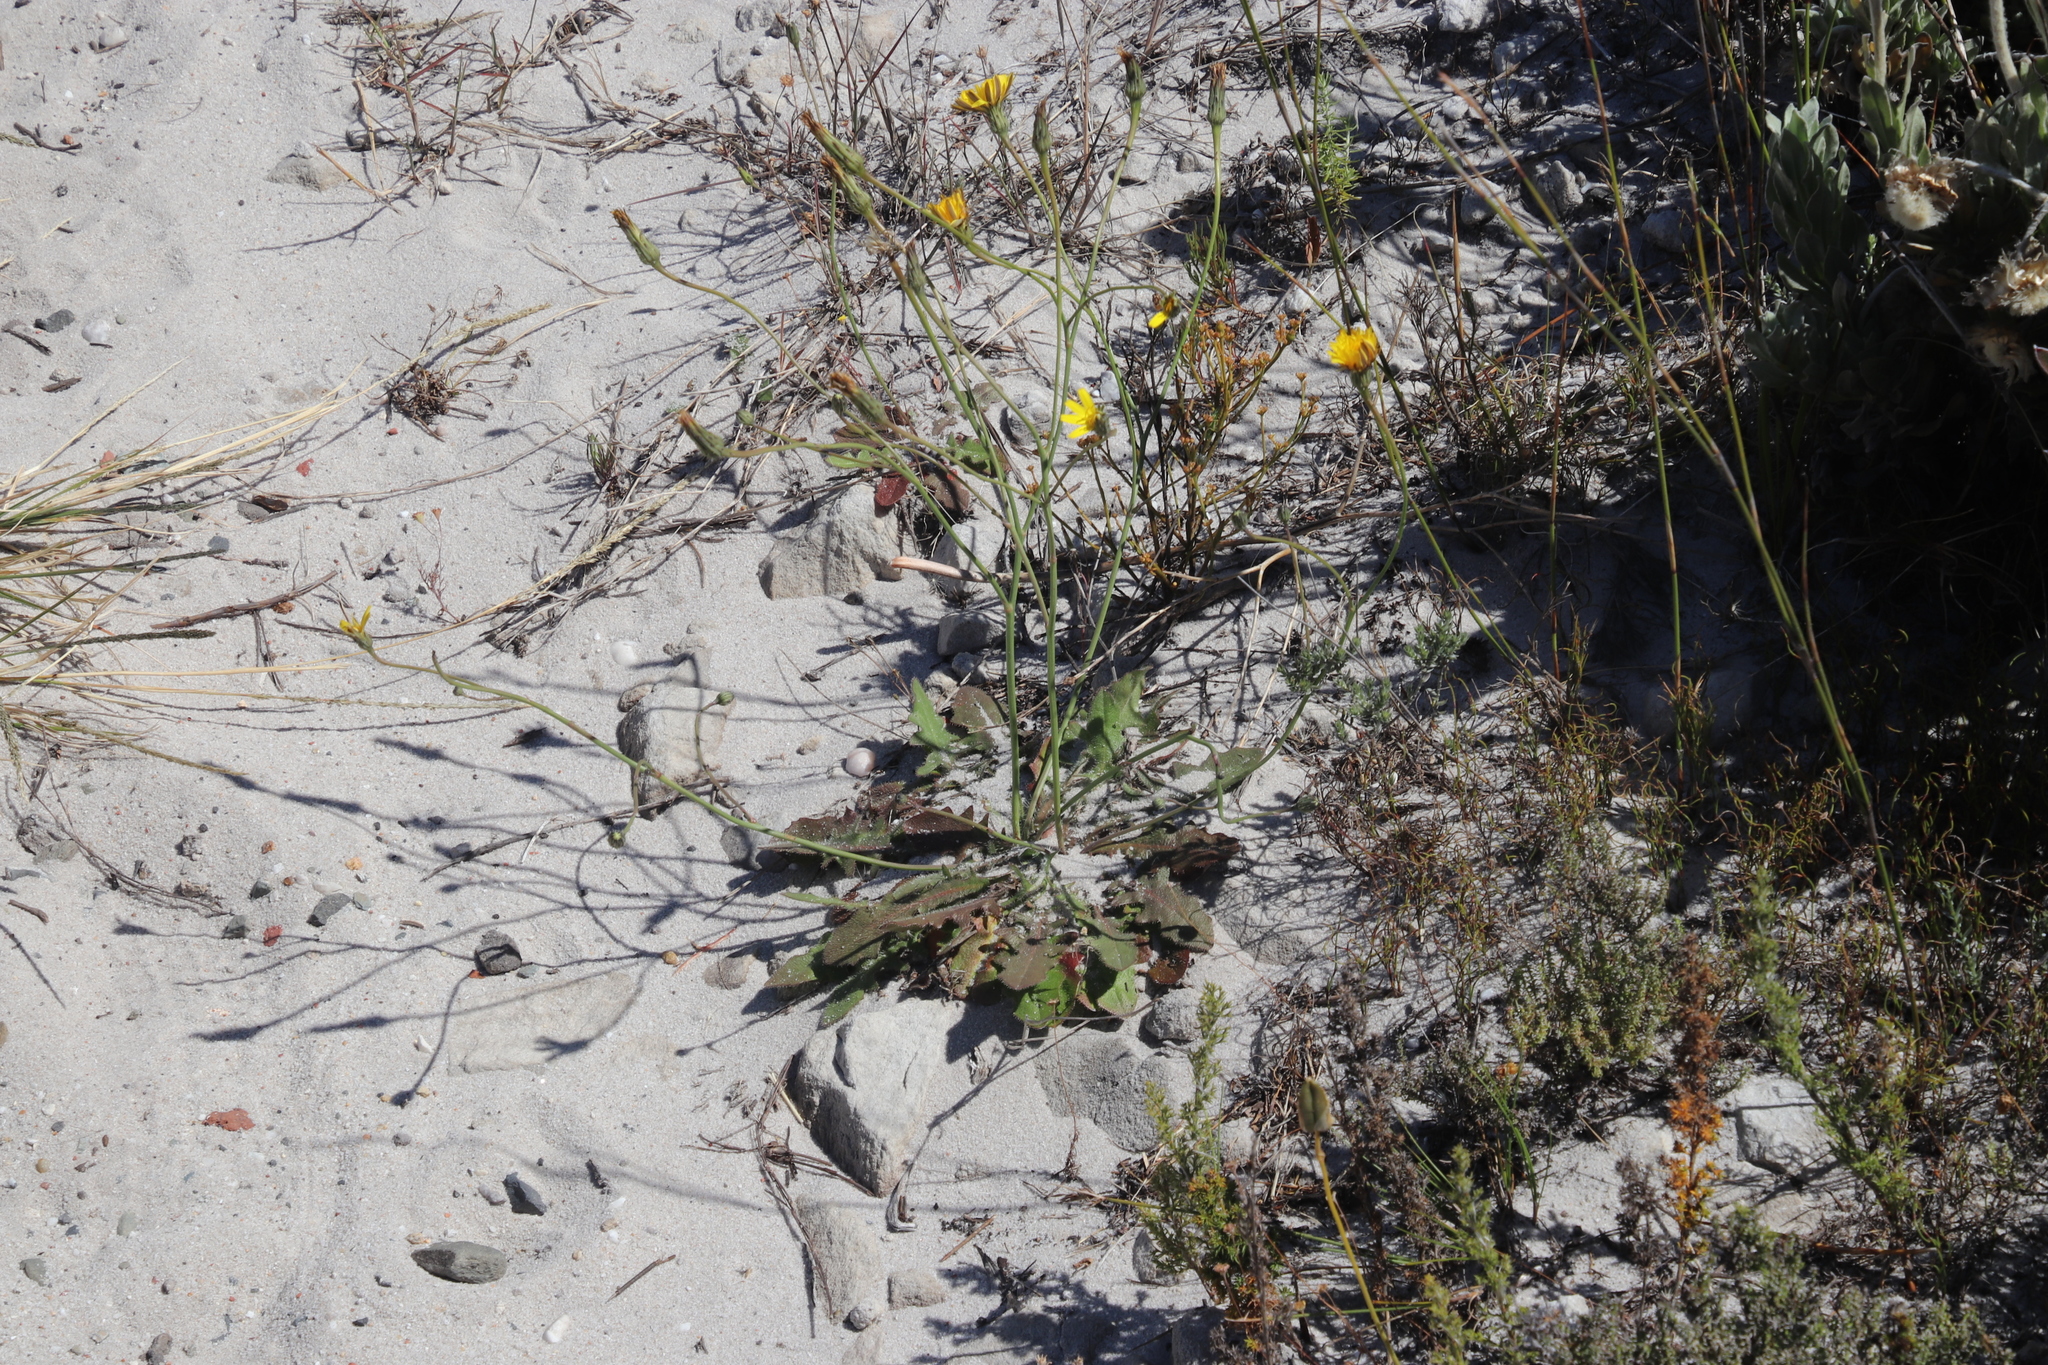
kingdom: Plantae
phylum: Tracheophyta
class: Magnoliopsida
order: Asterales
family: Asteraceae
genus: Hypochaeris
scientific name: Hypochaeris radicata
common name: Flatweed
